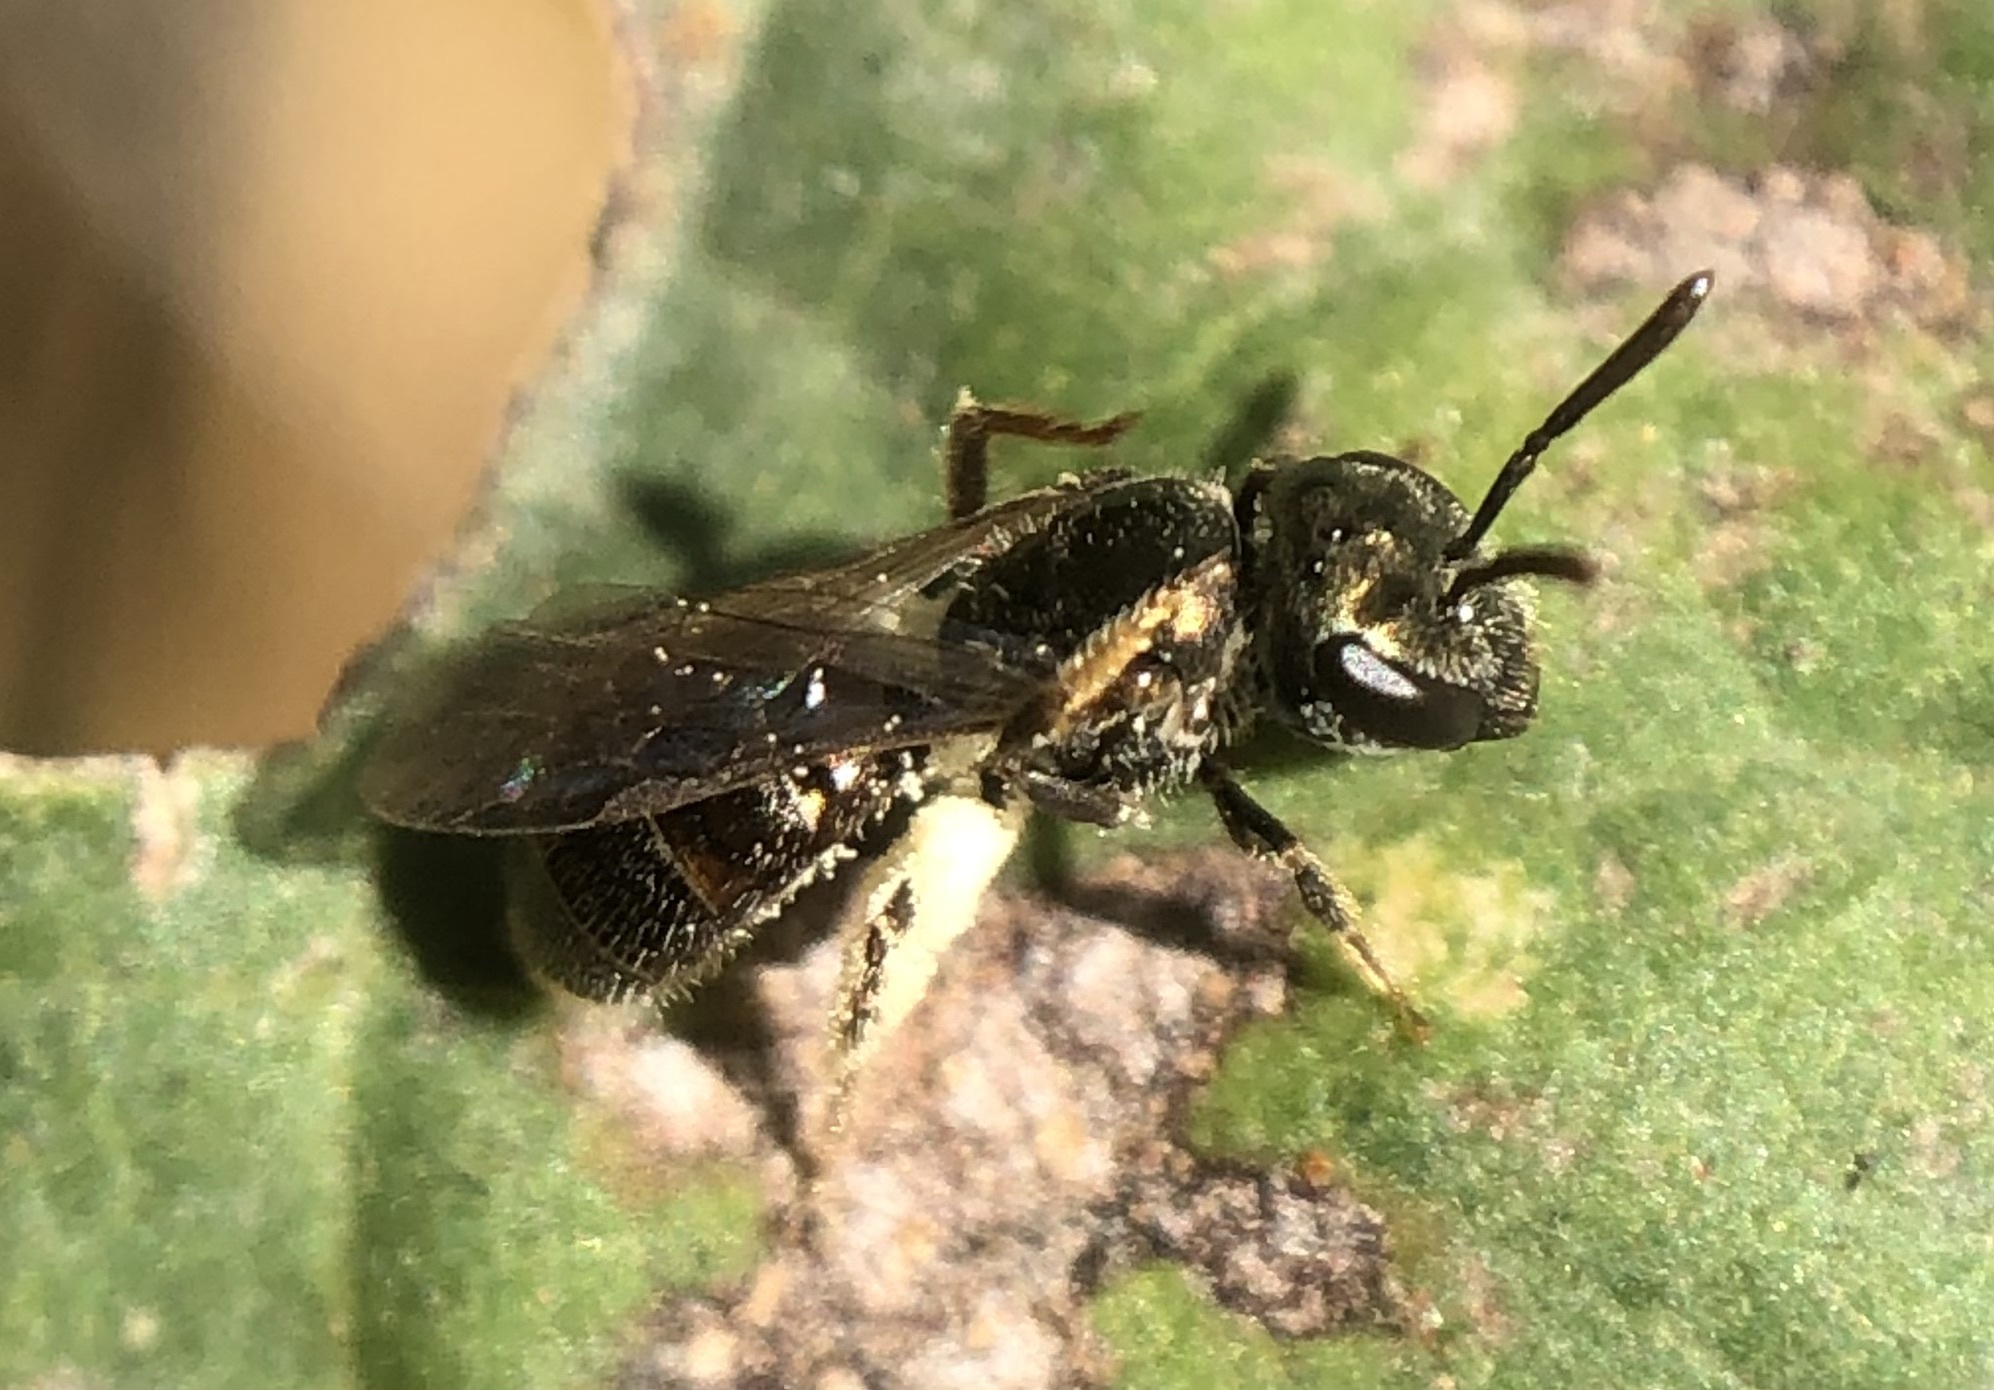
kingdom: Animalia
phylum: Arthropoda
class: Insecta
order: Hymenoptera
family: Halictidae
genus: Lasioglossum
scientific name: Lasioglossum imitatum
